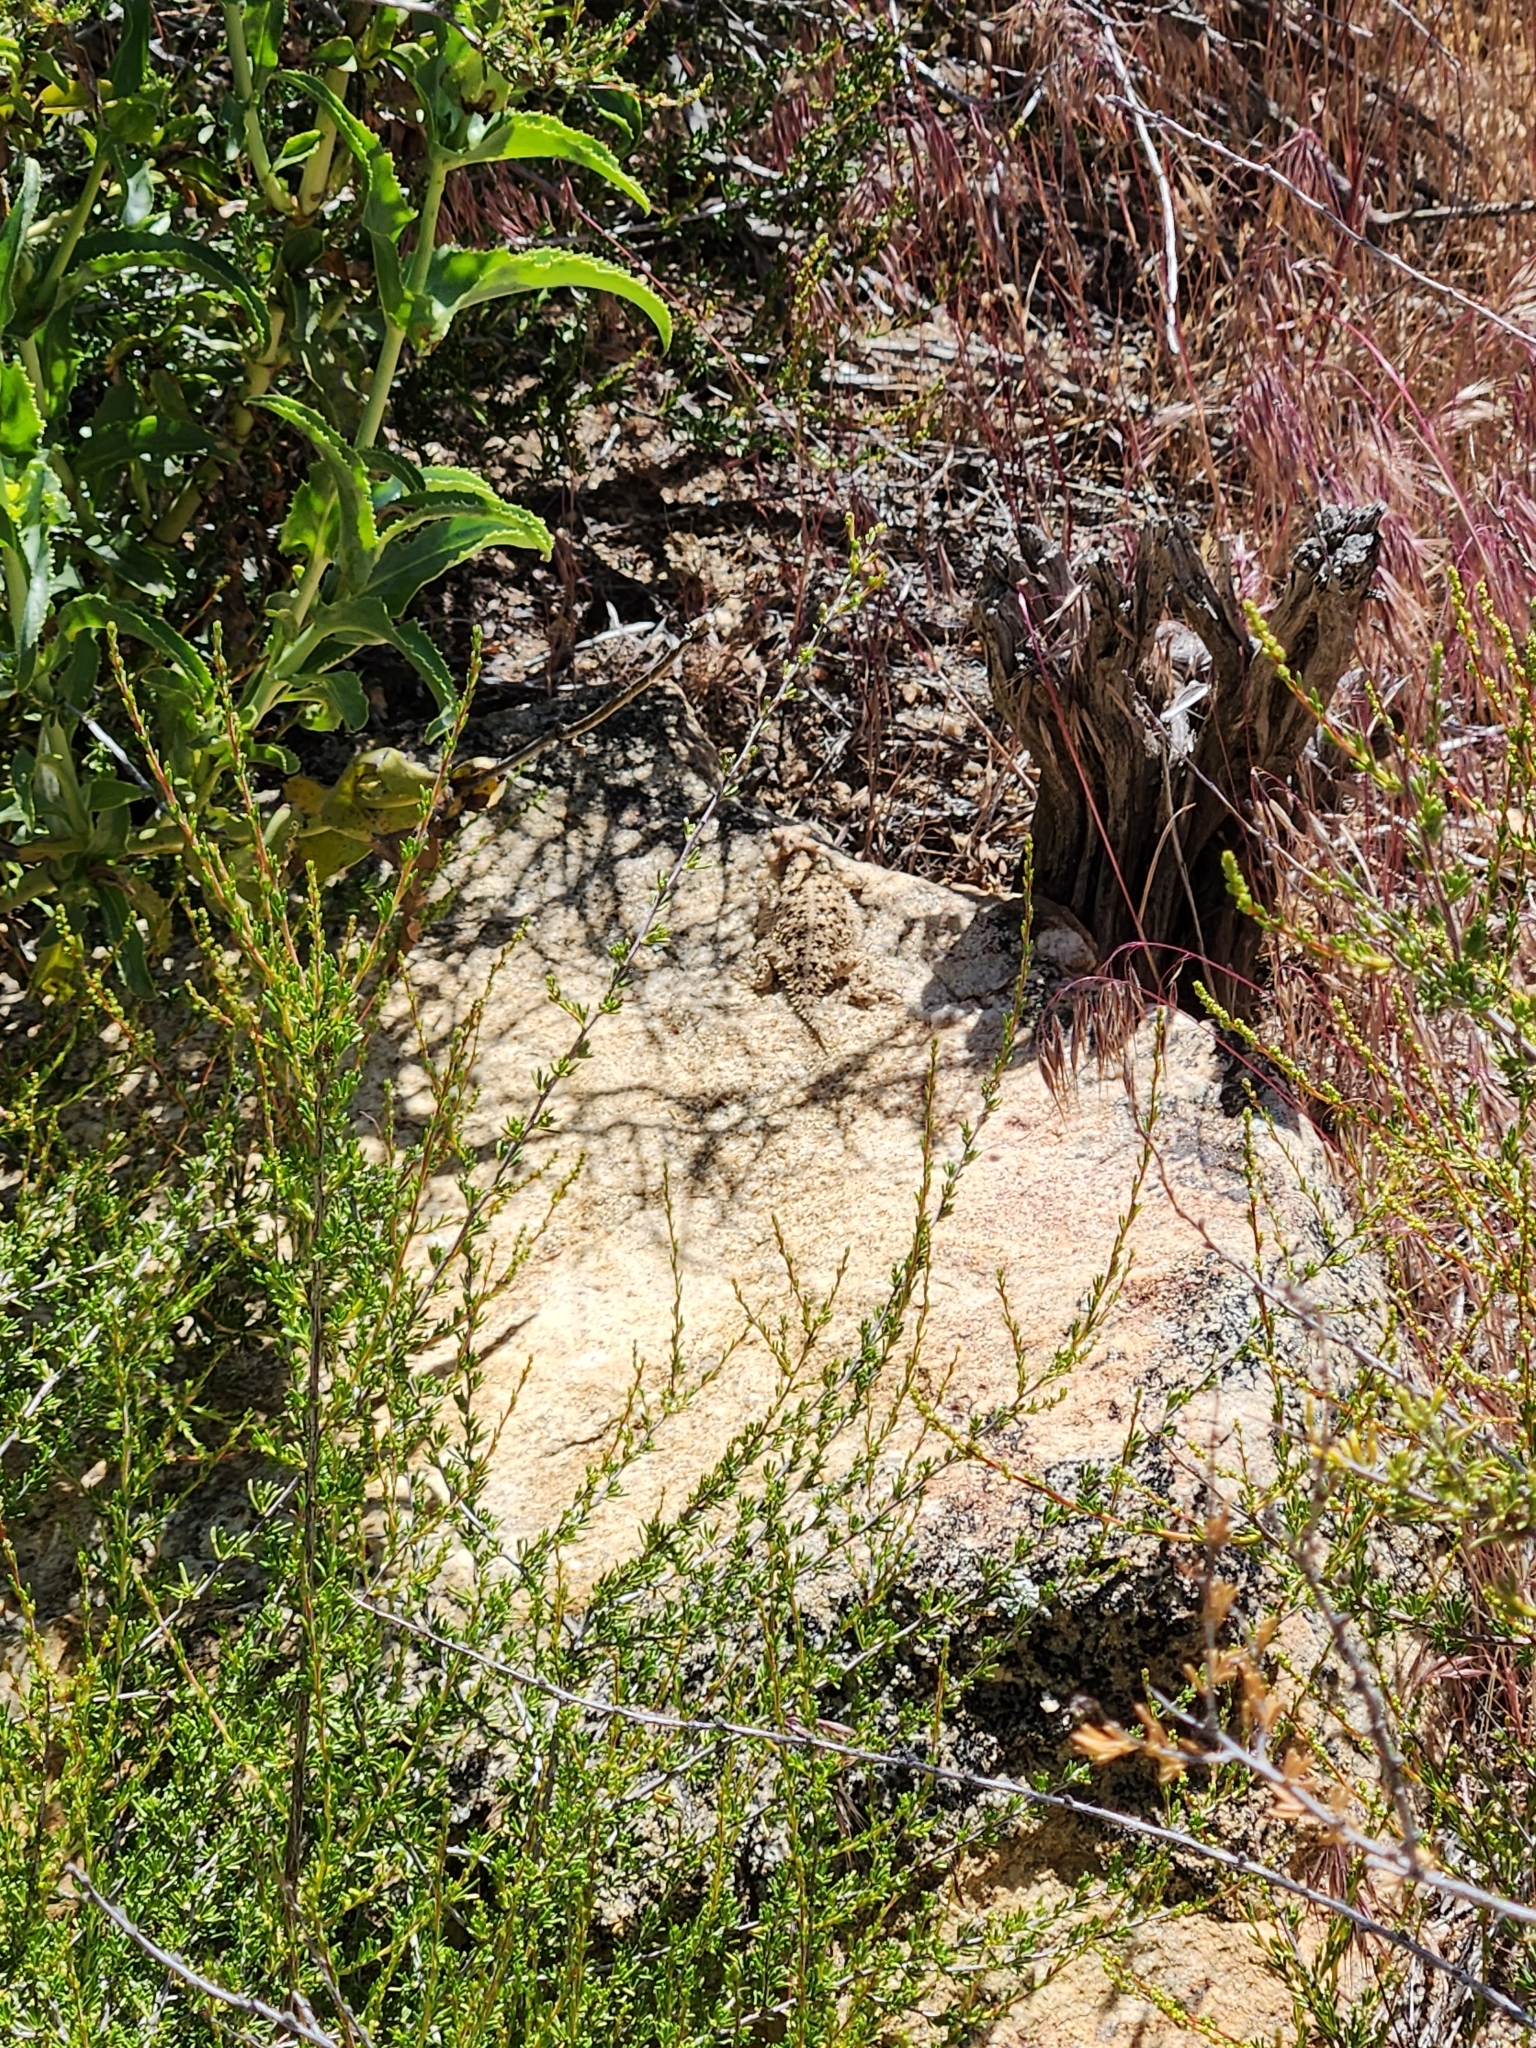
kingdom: Animalia
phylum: Chordata
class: Squamata
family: Phrynosomatidae
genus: Phrynosoma
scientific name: Phrynosoma blainvillii
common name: San diego horned lizard
